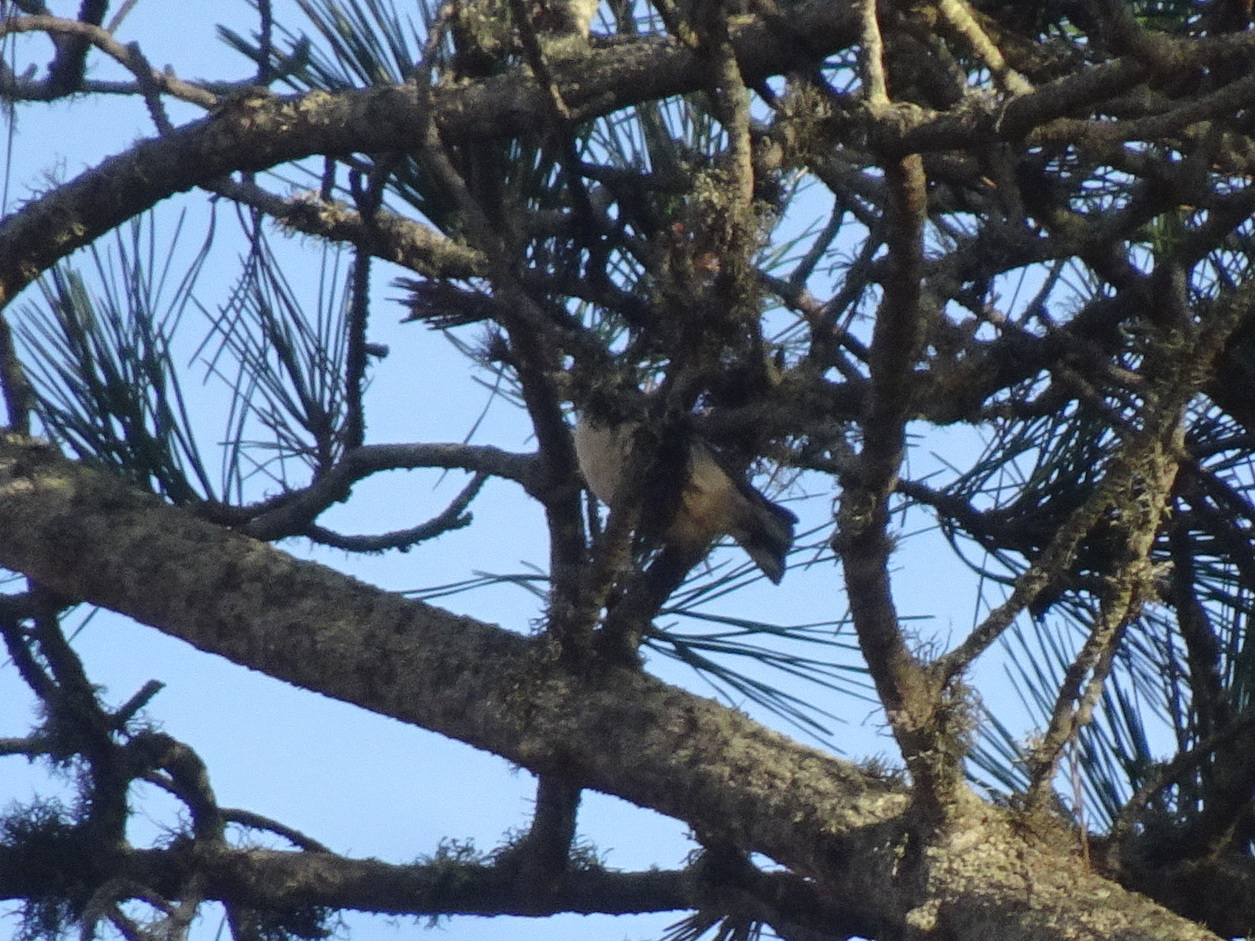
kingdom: Animalia
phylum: Chordata
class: Aves
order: Passeriformes
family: Sittidae
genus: Sitta
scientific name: Sitta pygmaea
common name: Pygmy nuthatch
